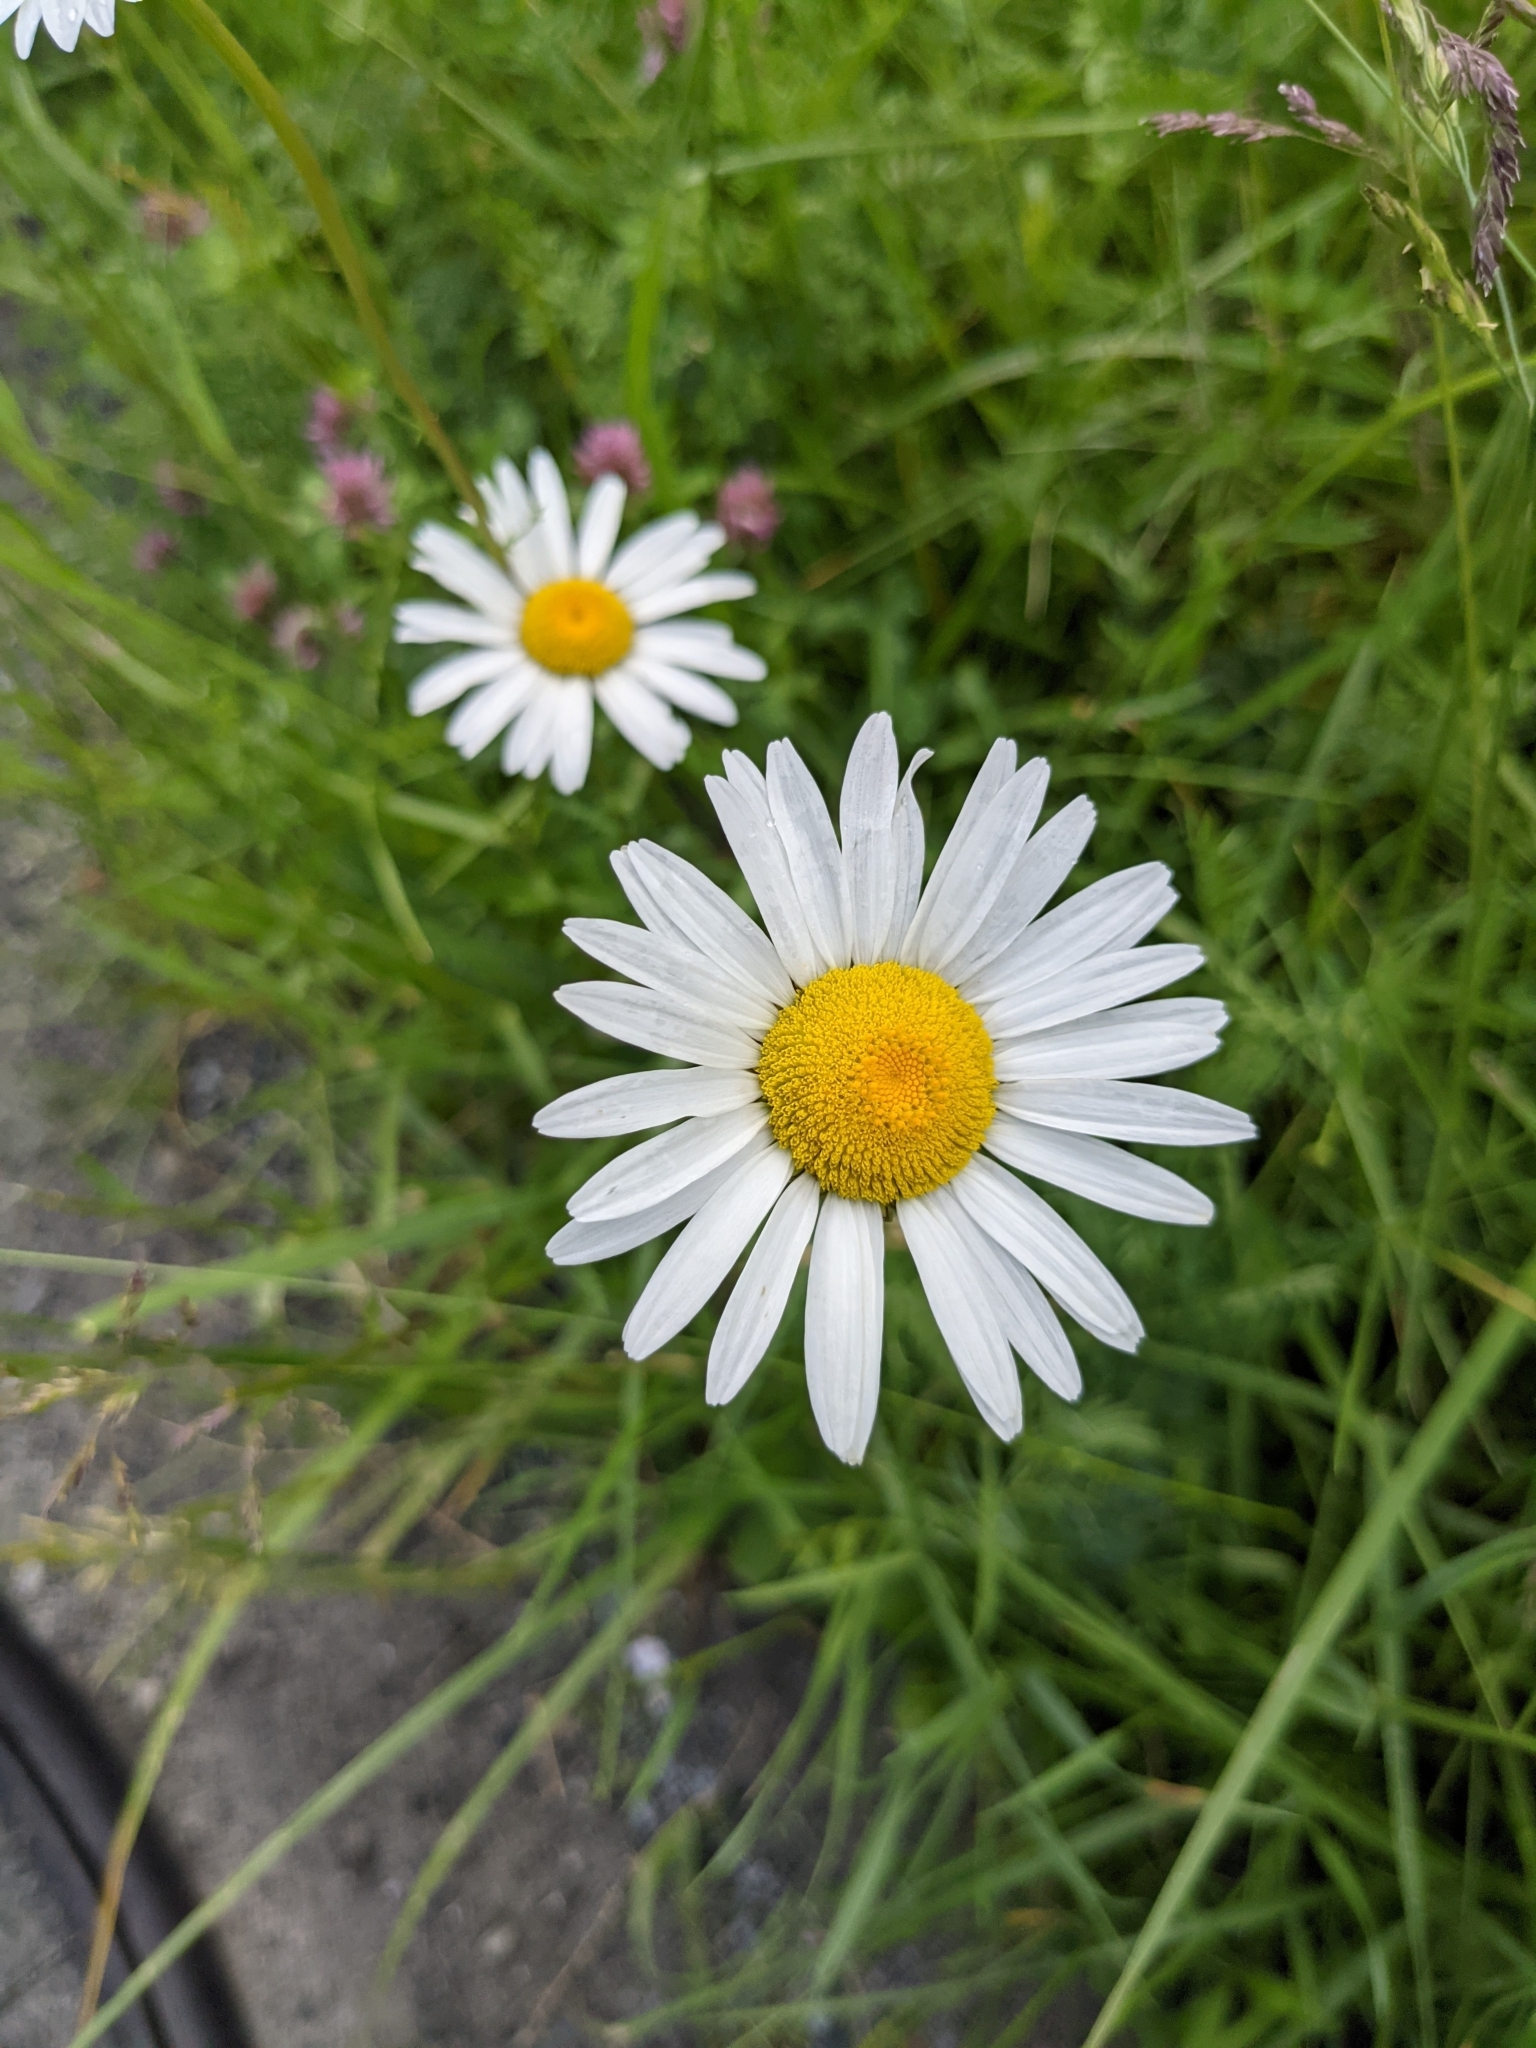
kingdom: Plantae
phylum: Tracheophyta
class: Magnoliopsida
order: Asterales
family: Asteraceae
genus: Leucanthemum
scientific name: Leucanthemum vulgare
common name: Oxeye daisy
